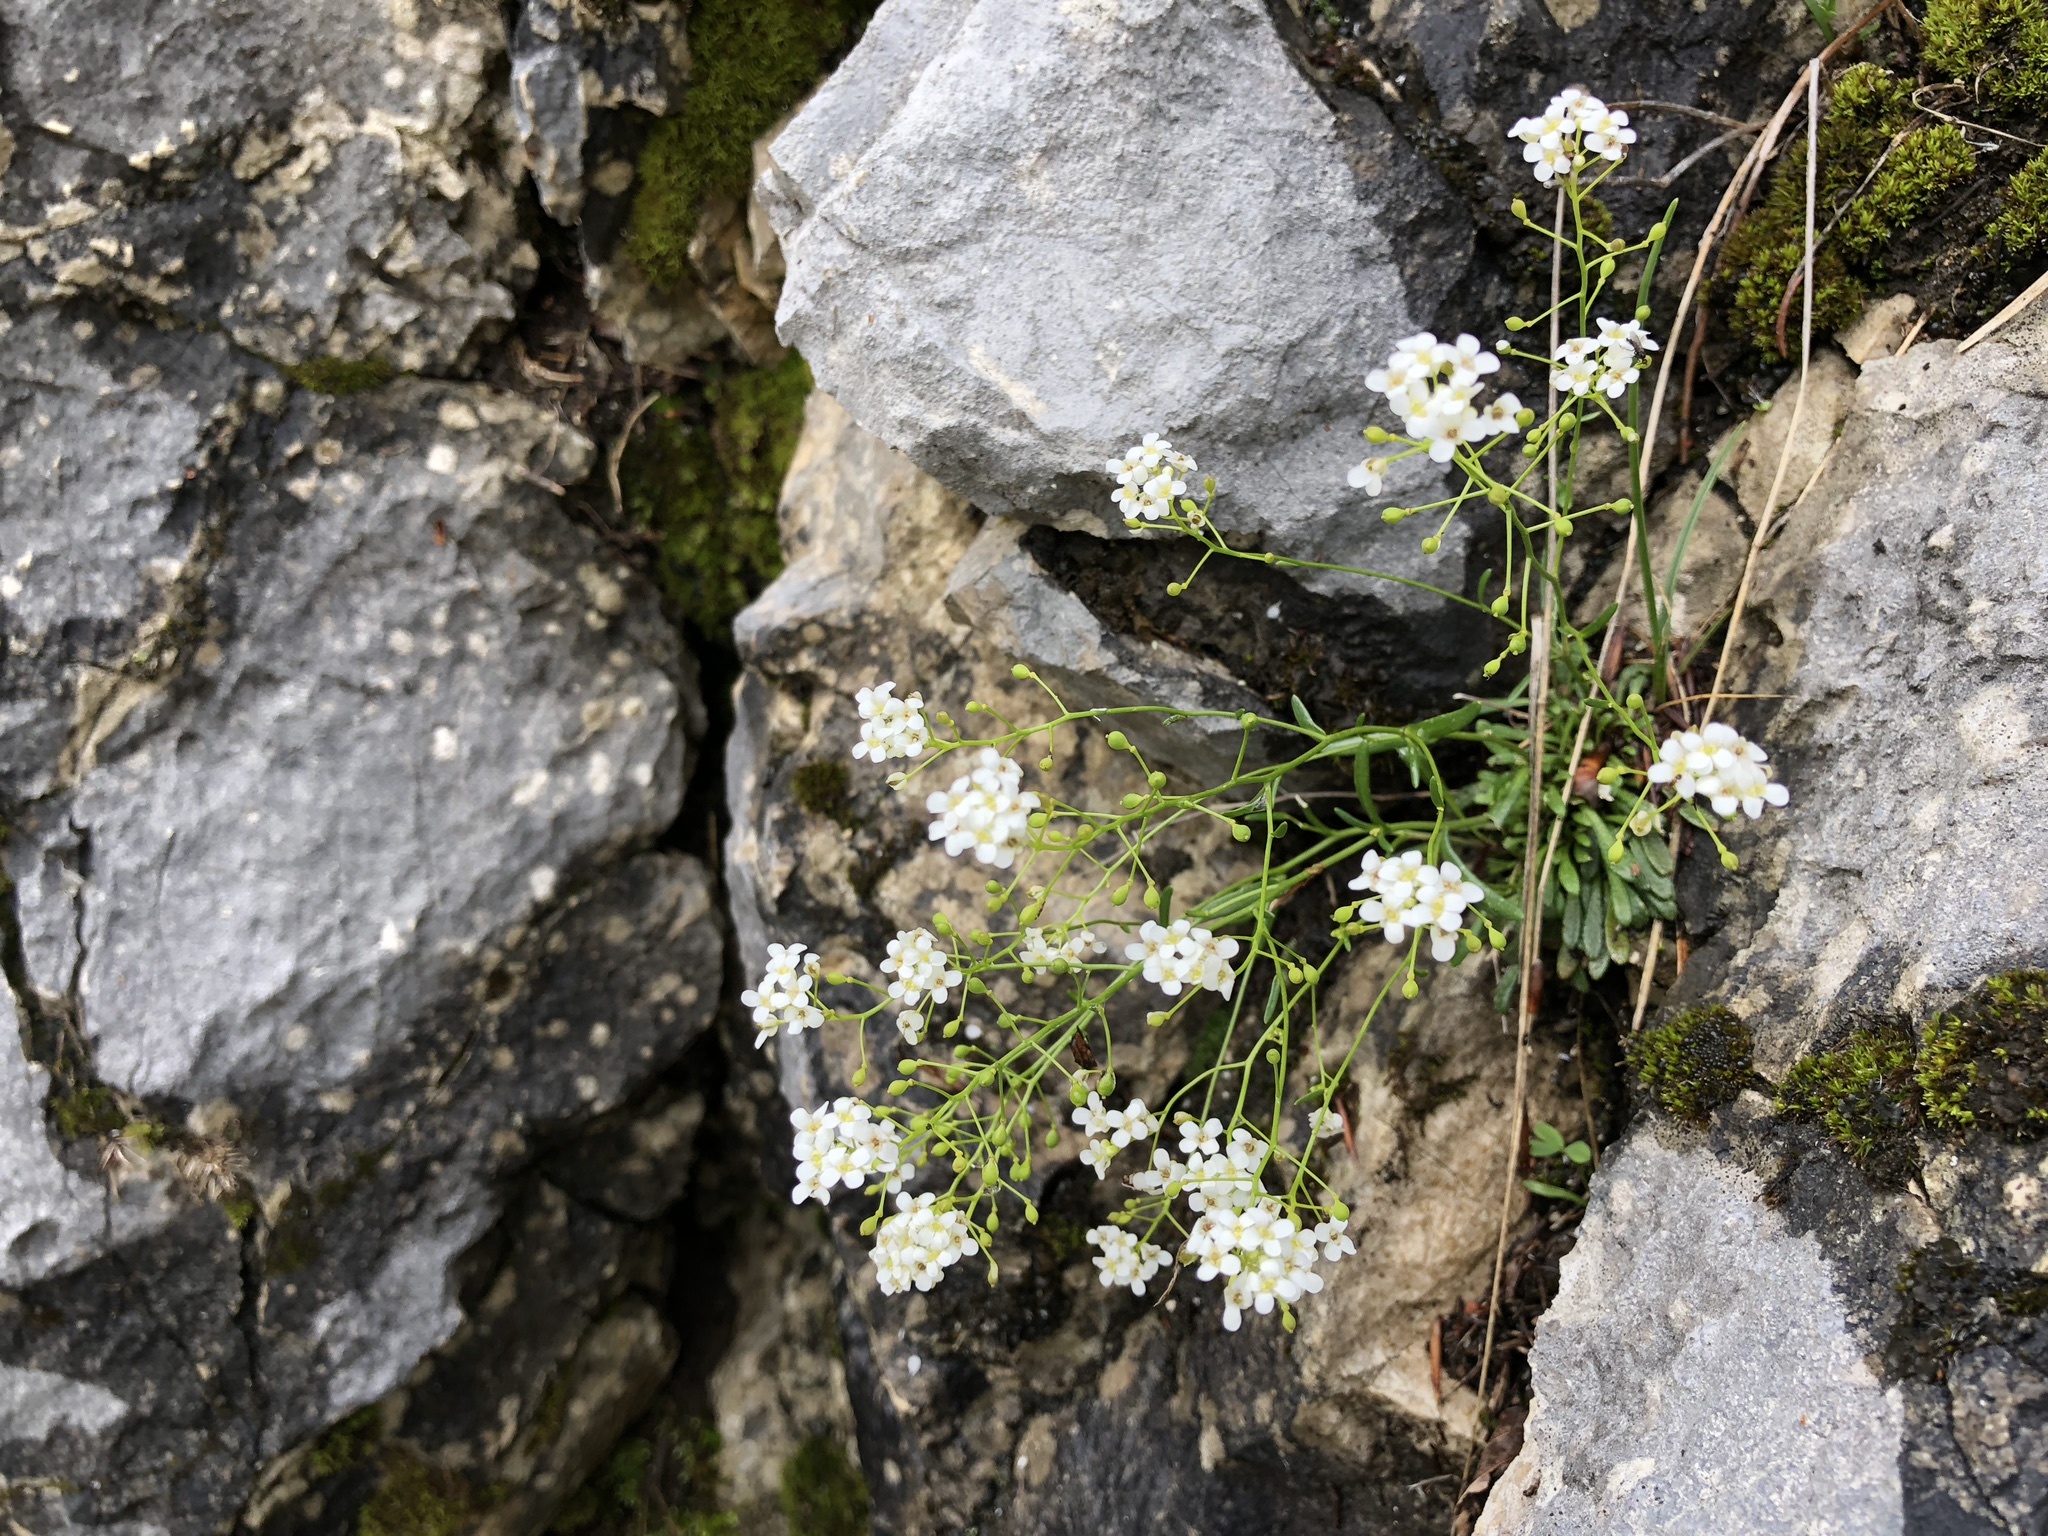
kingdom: Plantae
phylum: Tracheophyta
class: Magnoliopsida
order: Brassicales
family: Brassicaceae
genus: Kernera
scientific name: Kernera saxatilis
